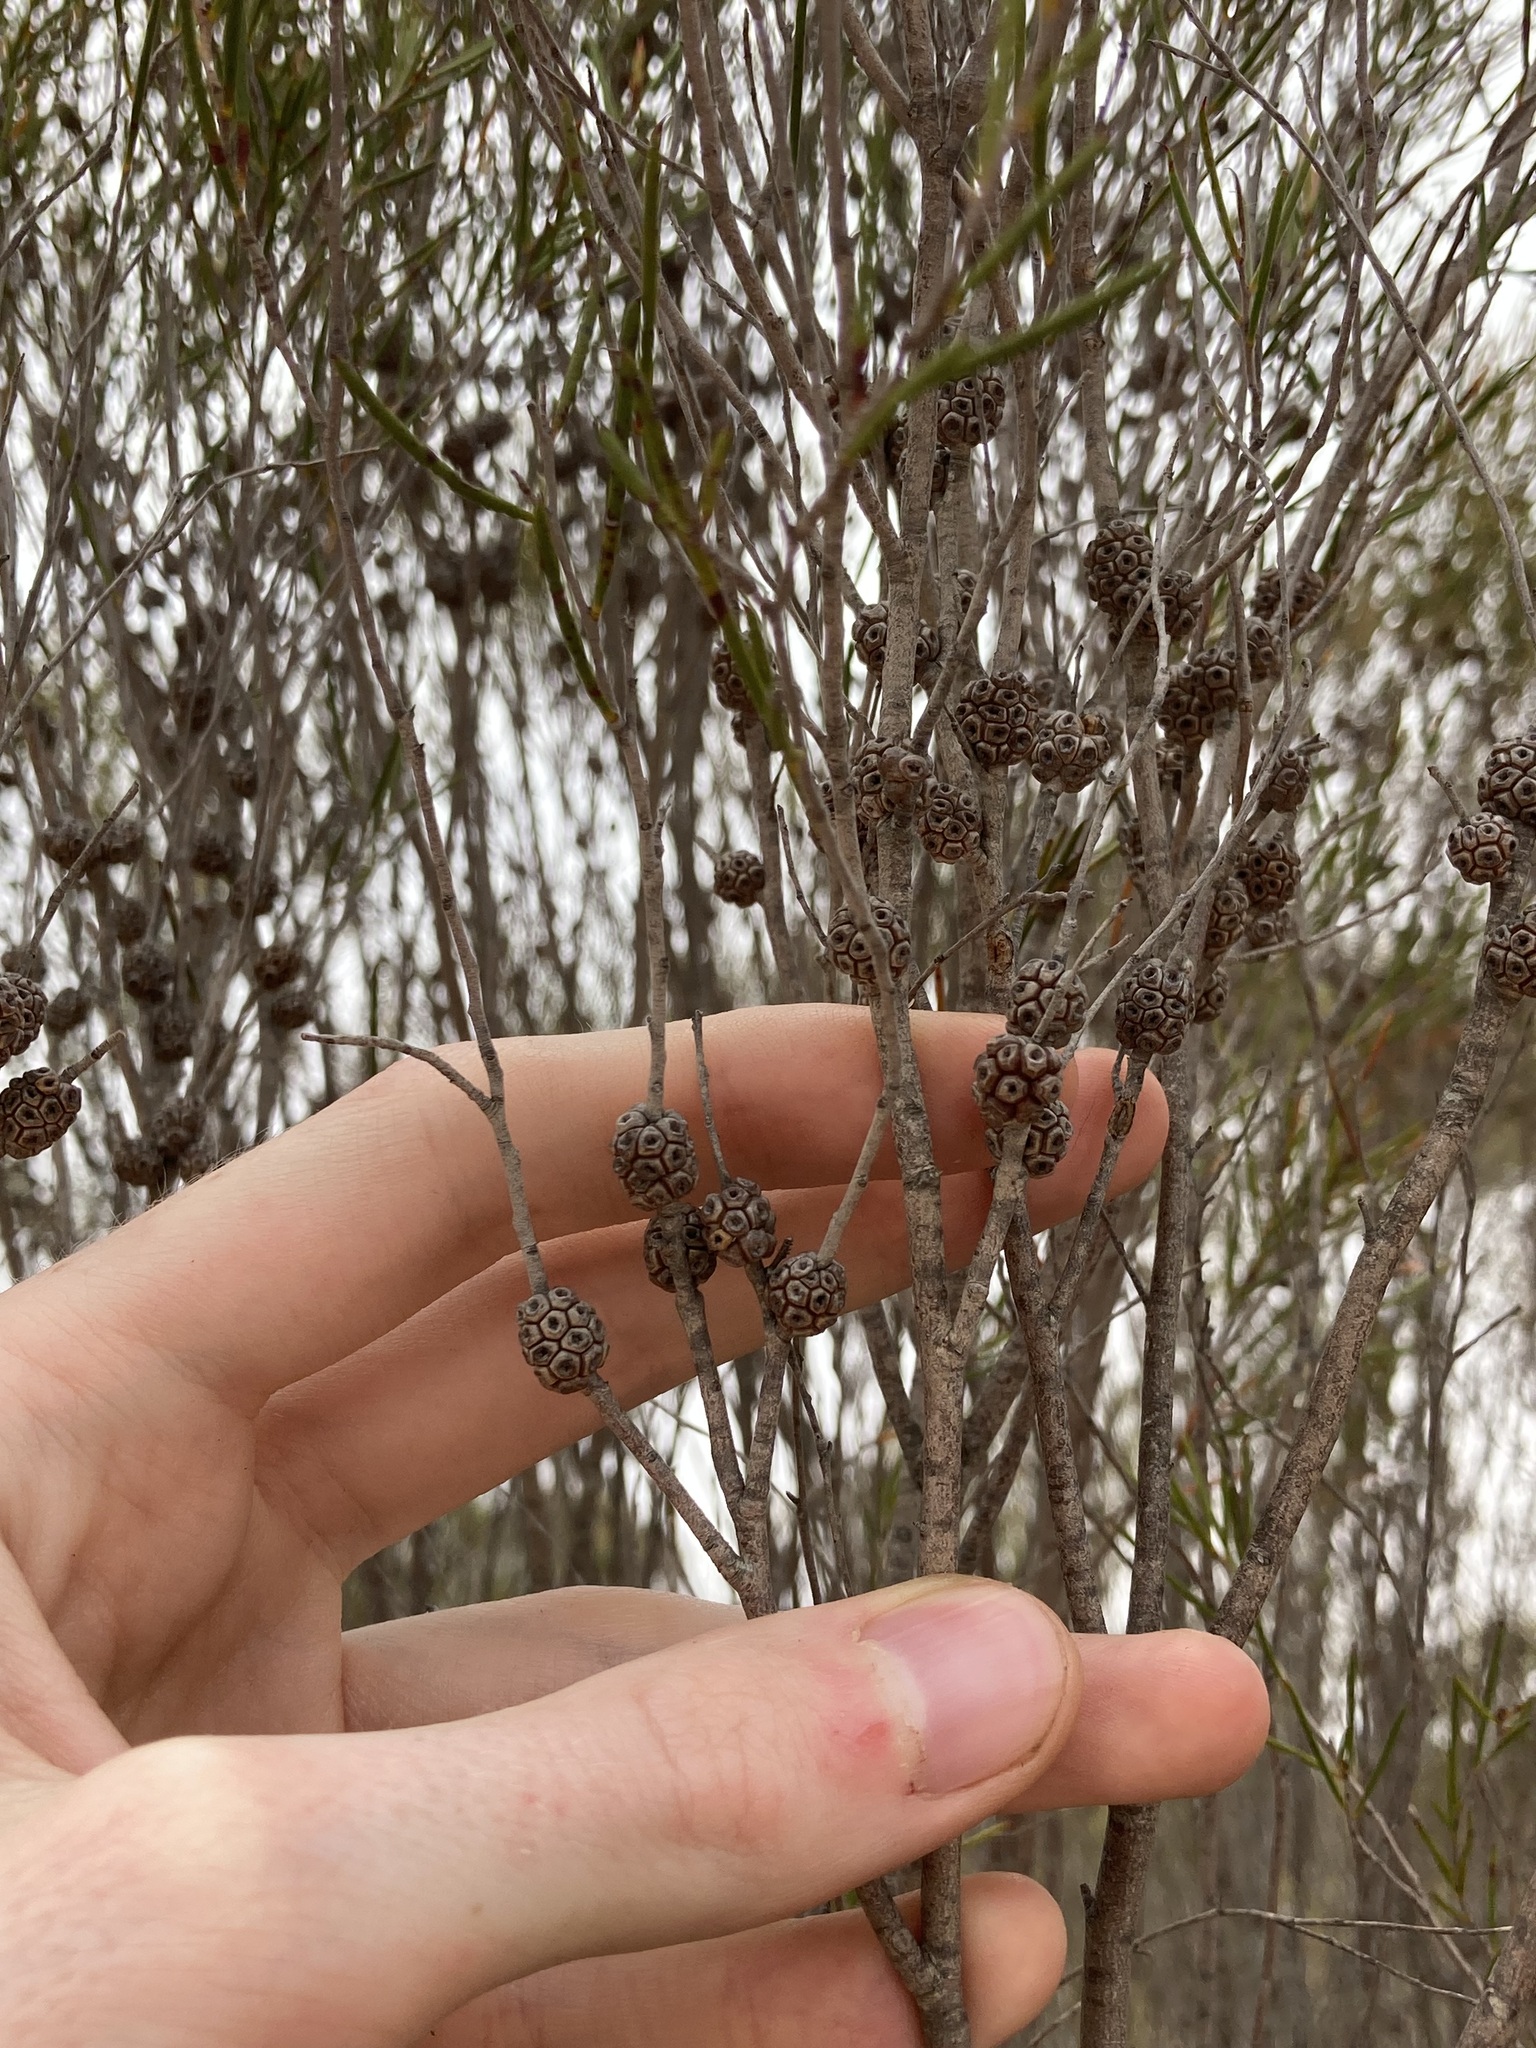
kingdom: Plantae
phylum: Tracheophyta
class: Magnoliopsida
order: Myrtales
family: Myrtaceae
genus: Melaleuca
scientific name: Melaleuca hamata
